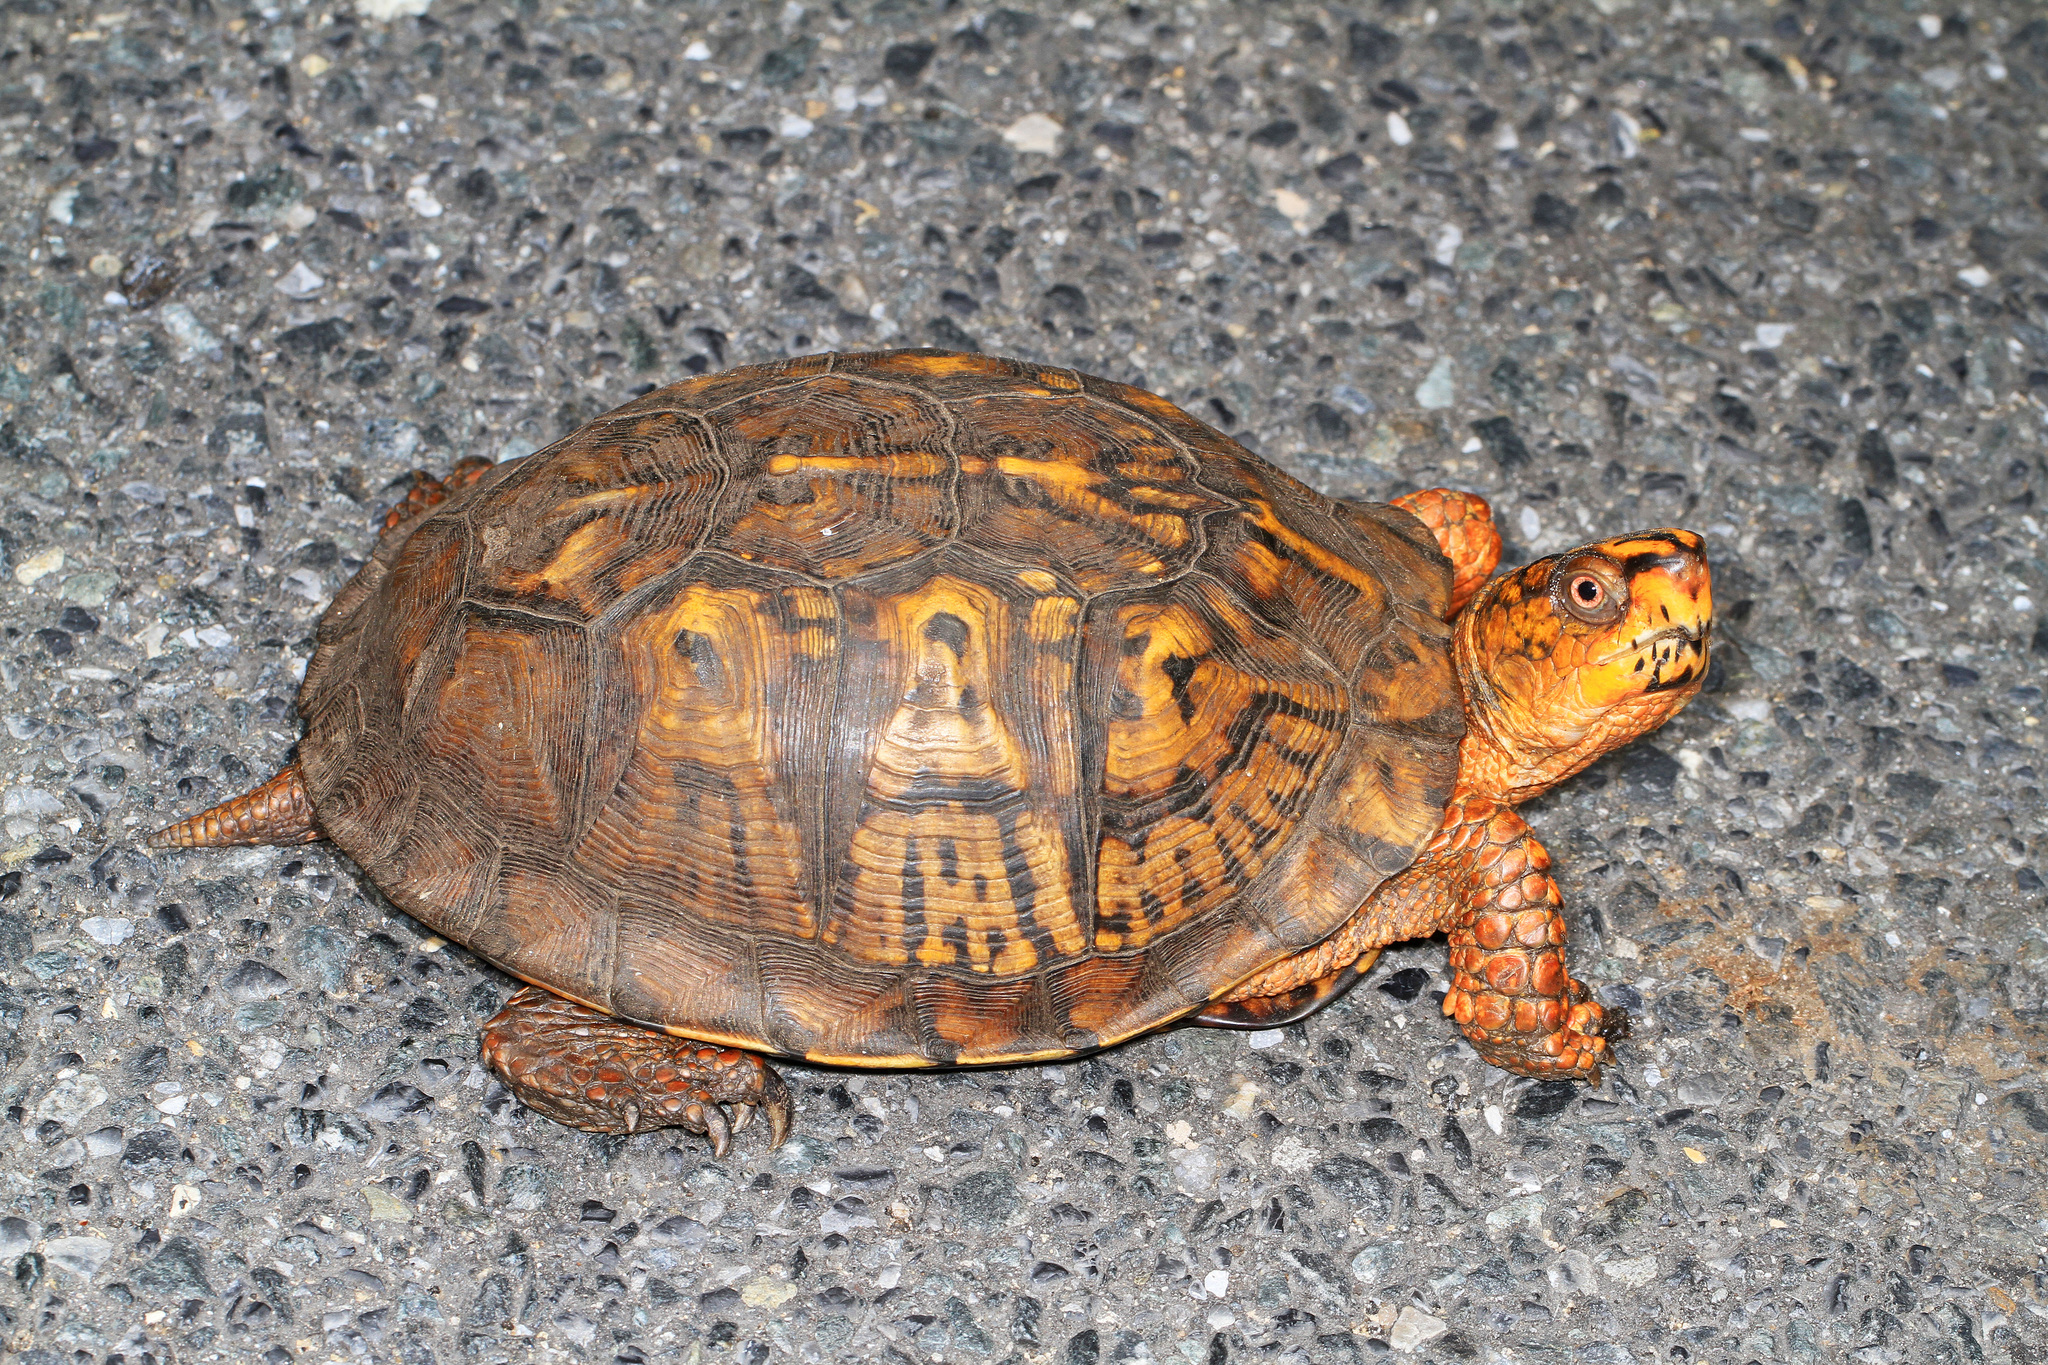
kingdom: Animalia
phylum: Chordata
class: Testudines
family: Emydidae
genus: Terrapene
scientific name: Terrapene carolina
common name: Common box turtle
